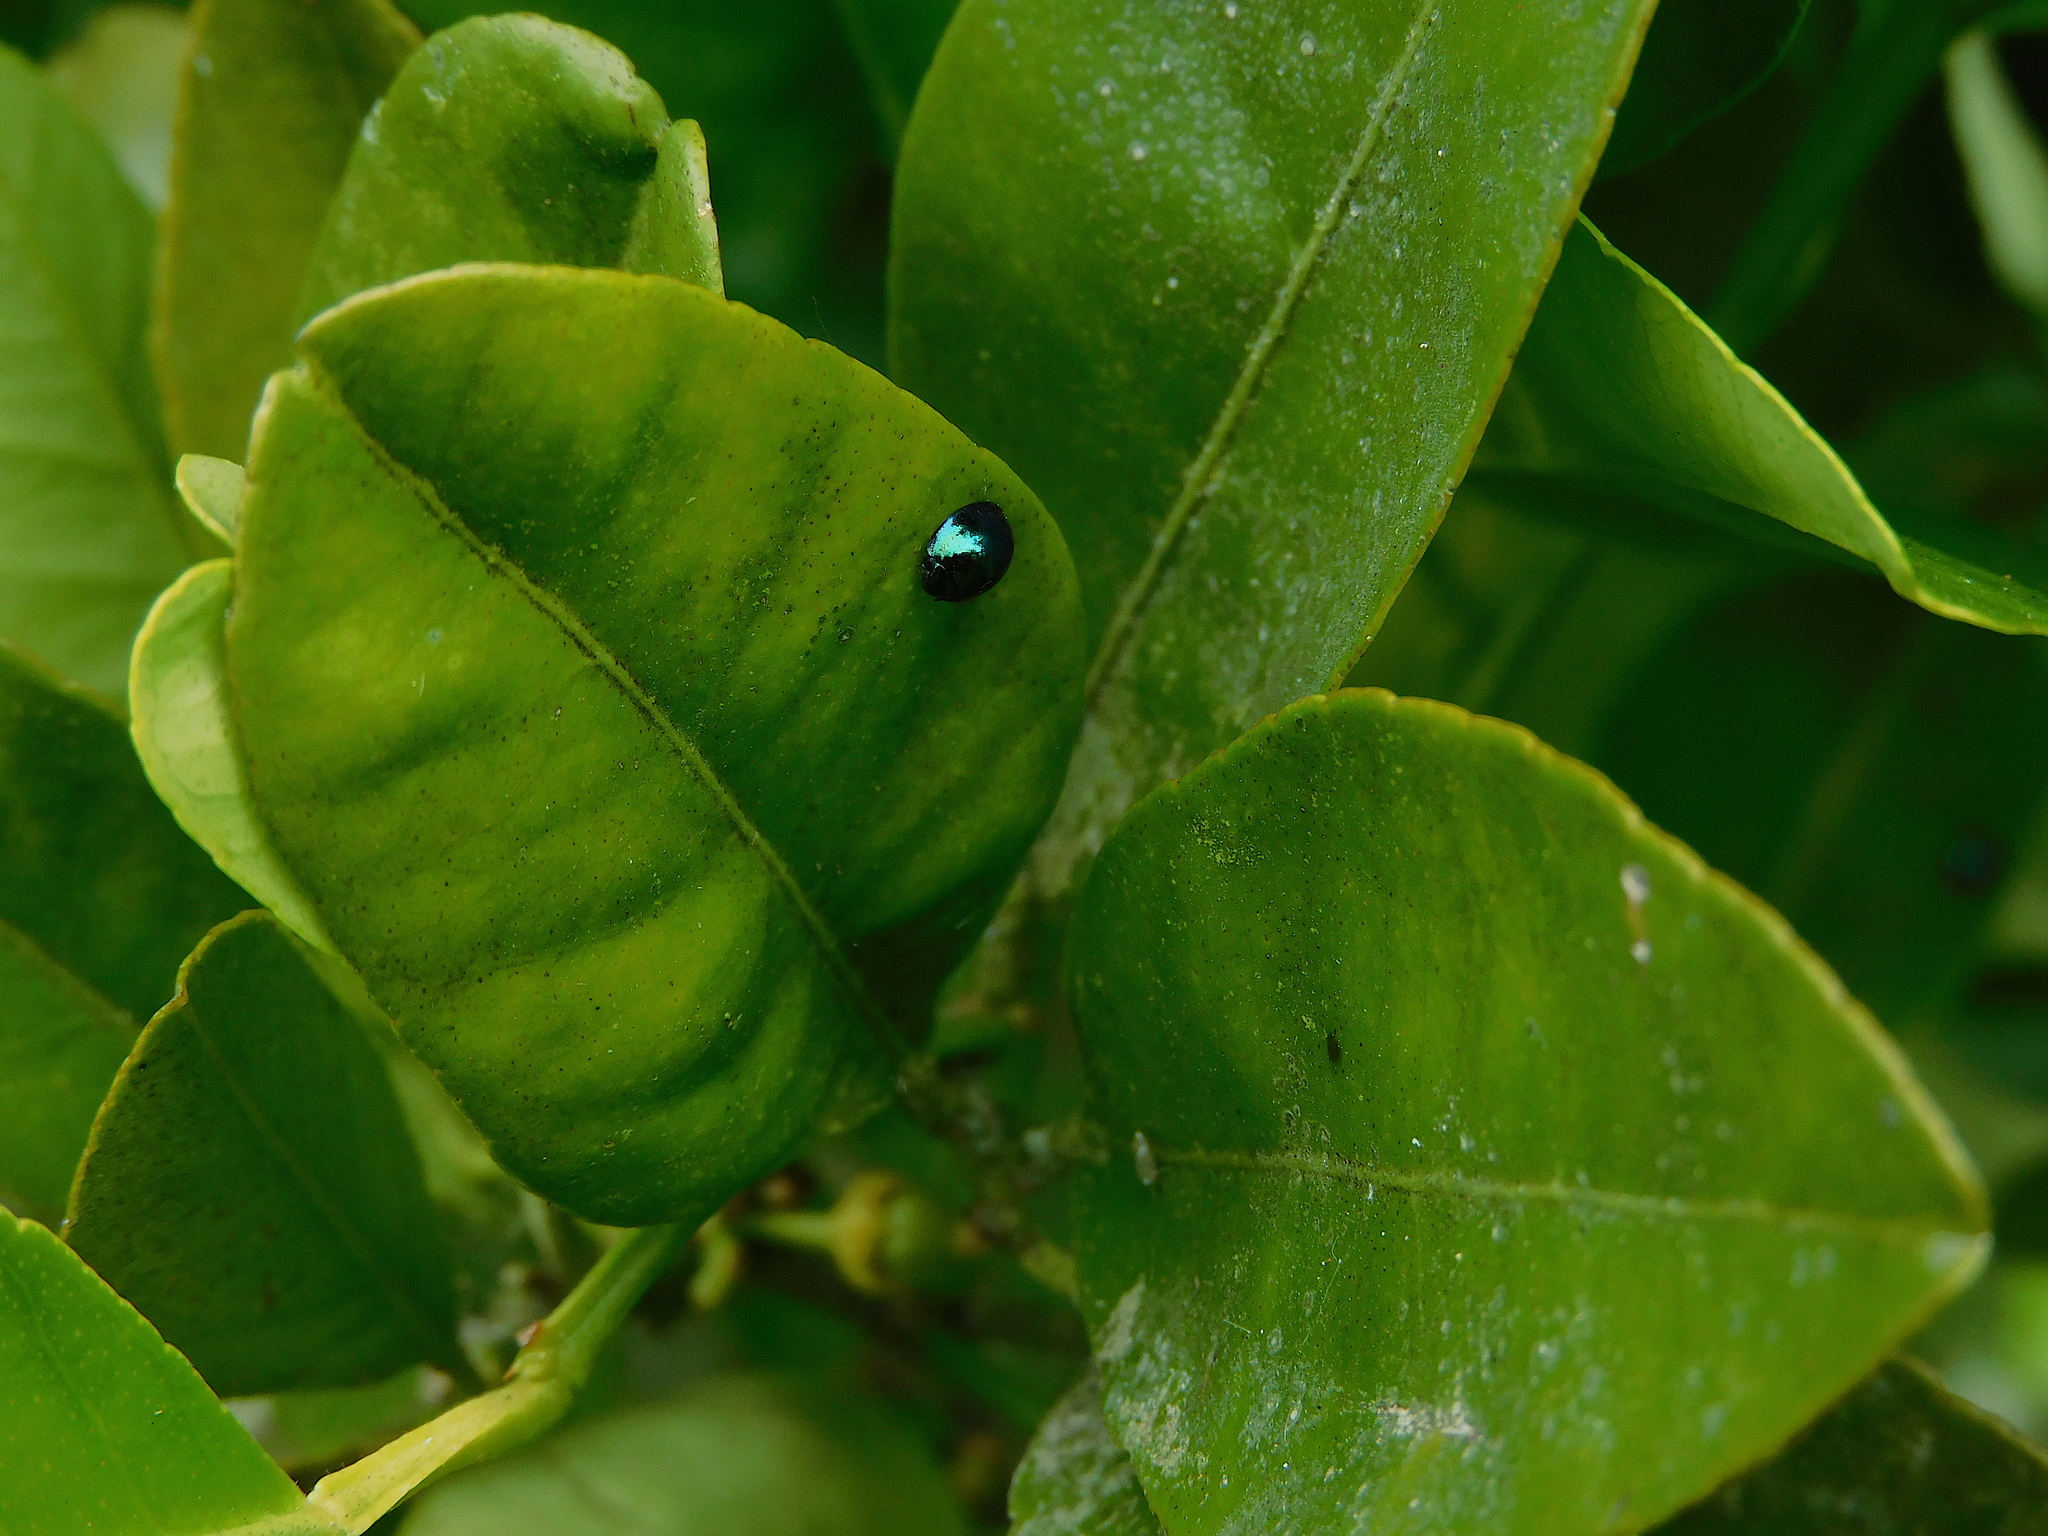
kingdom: Animalia
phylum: Arthropoda
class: Insecta
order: Coleoptera
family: Coccinellidae
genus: Halmus
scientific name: Halmus chalybeus
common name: Steel blue ladybird beetle
